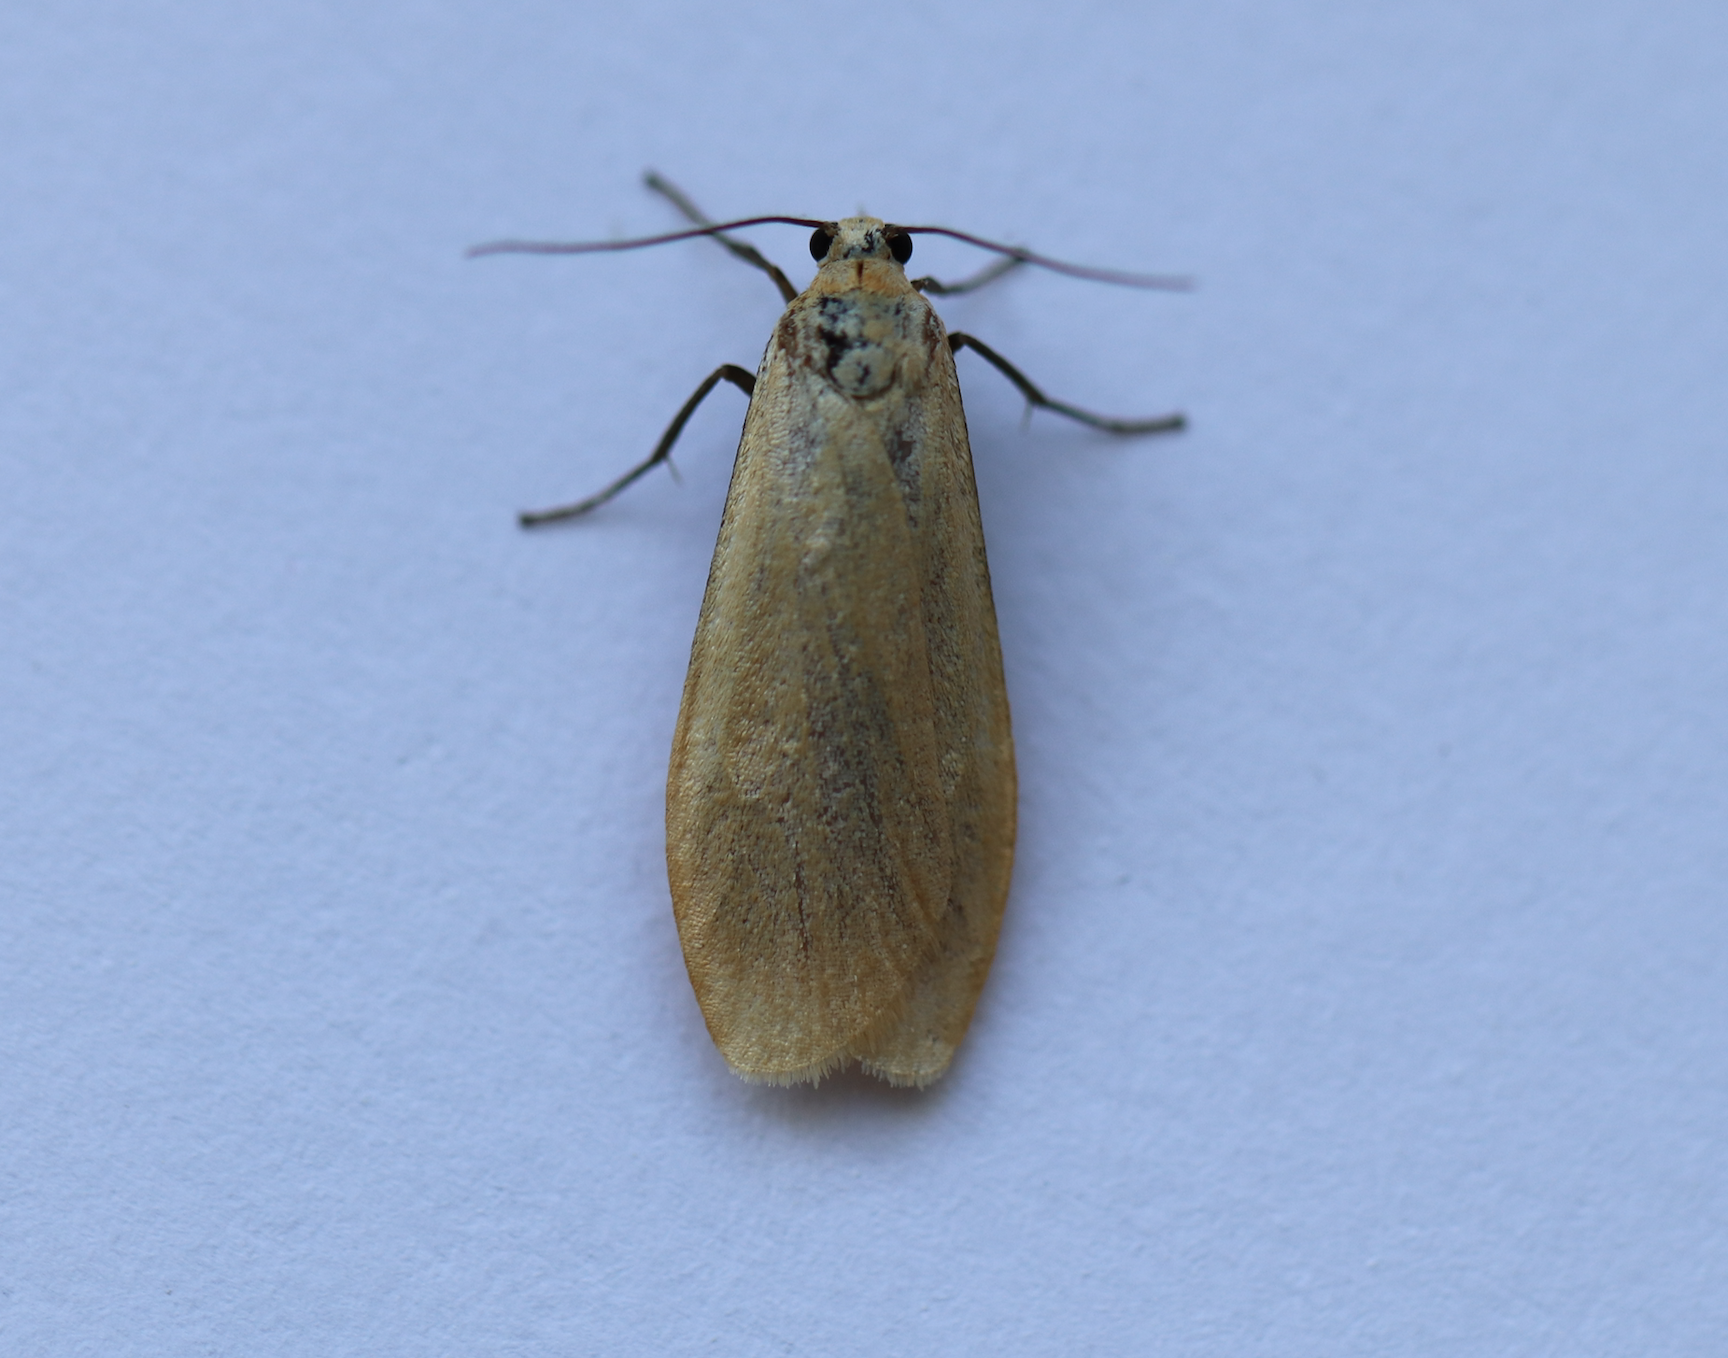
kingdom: Animalia
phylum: Arthropoda
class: Insecta
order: Lepidoptera
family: Erebidae
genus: Wittia
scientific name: Wittia sororcula
